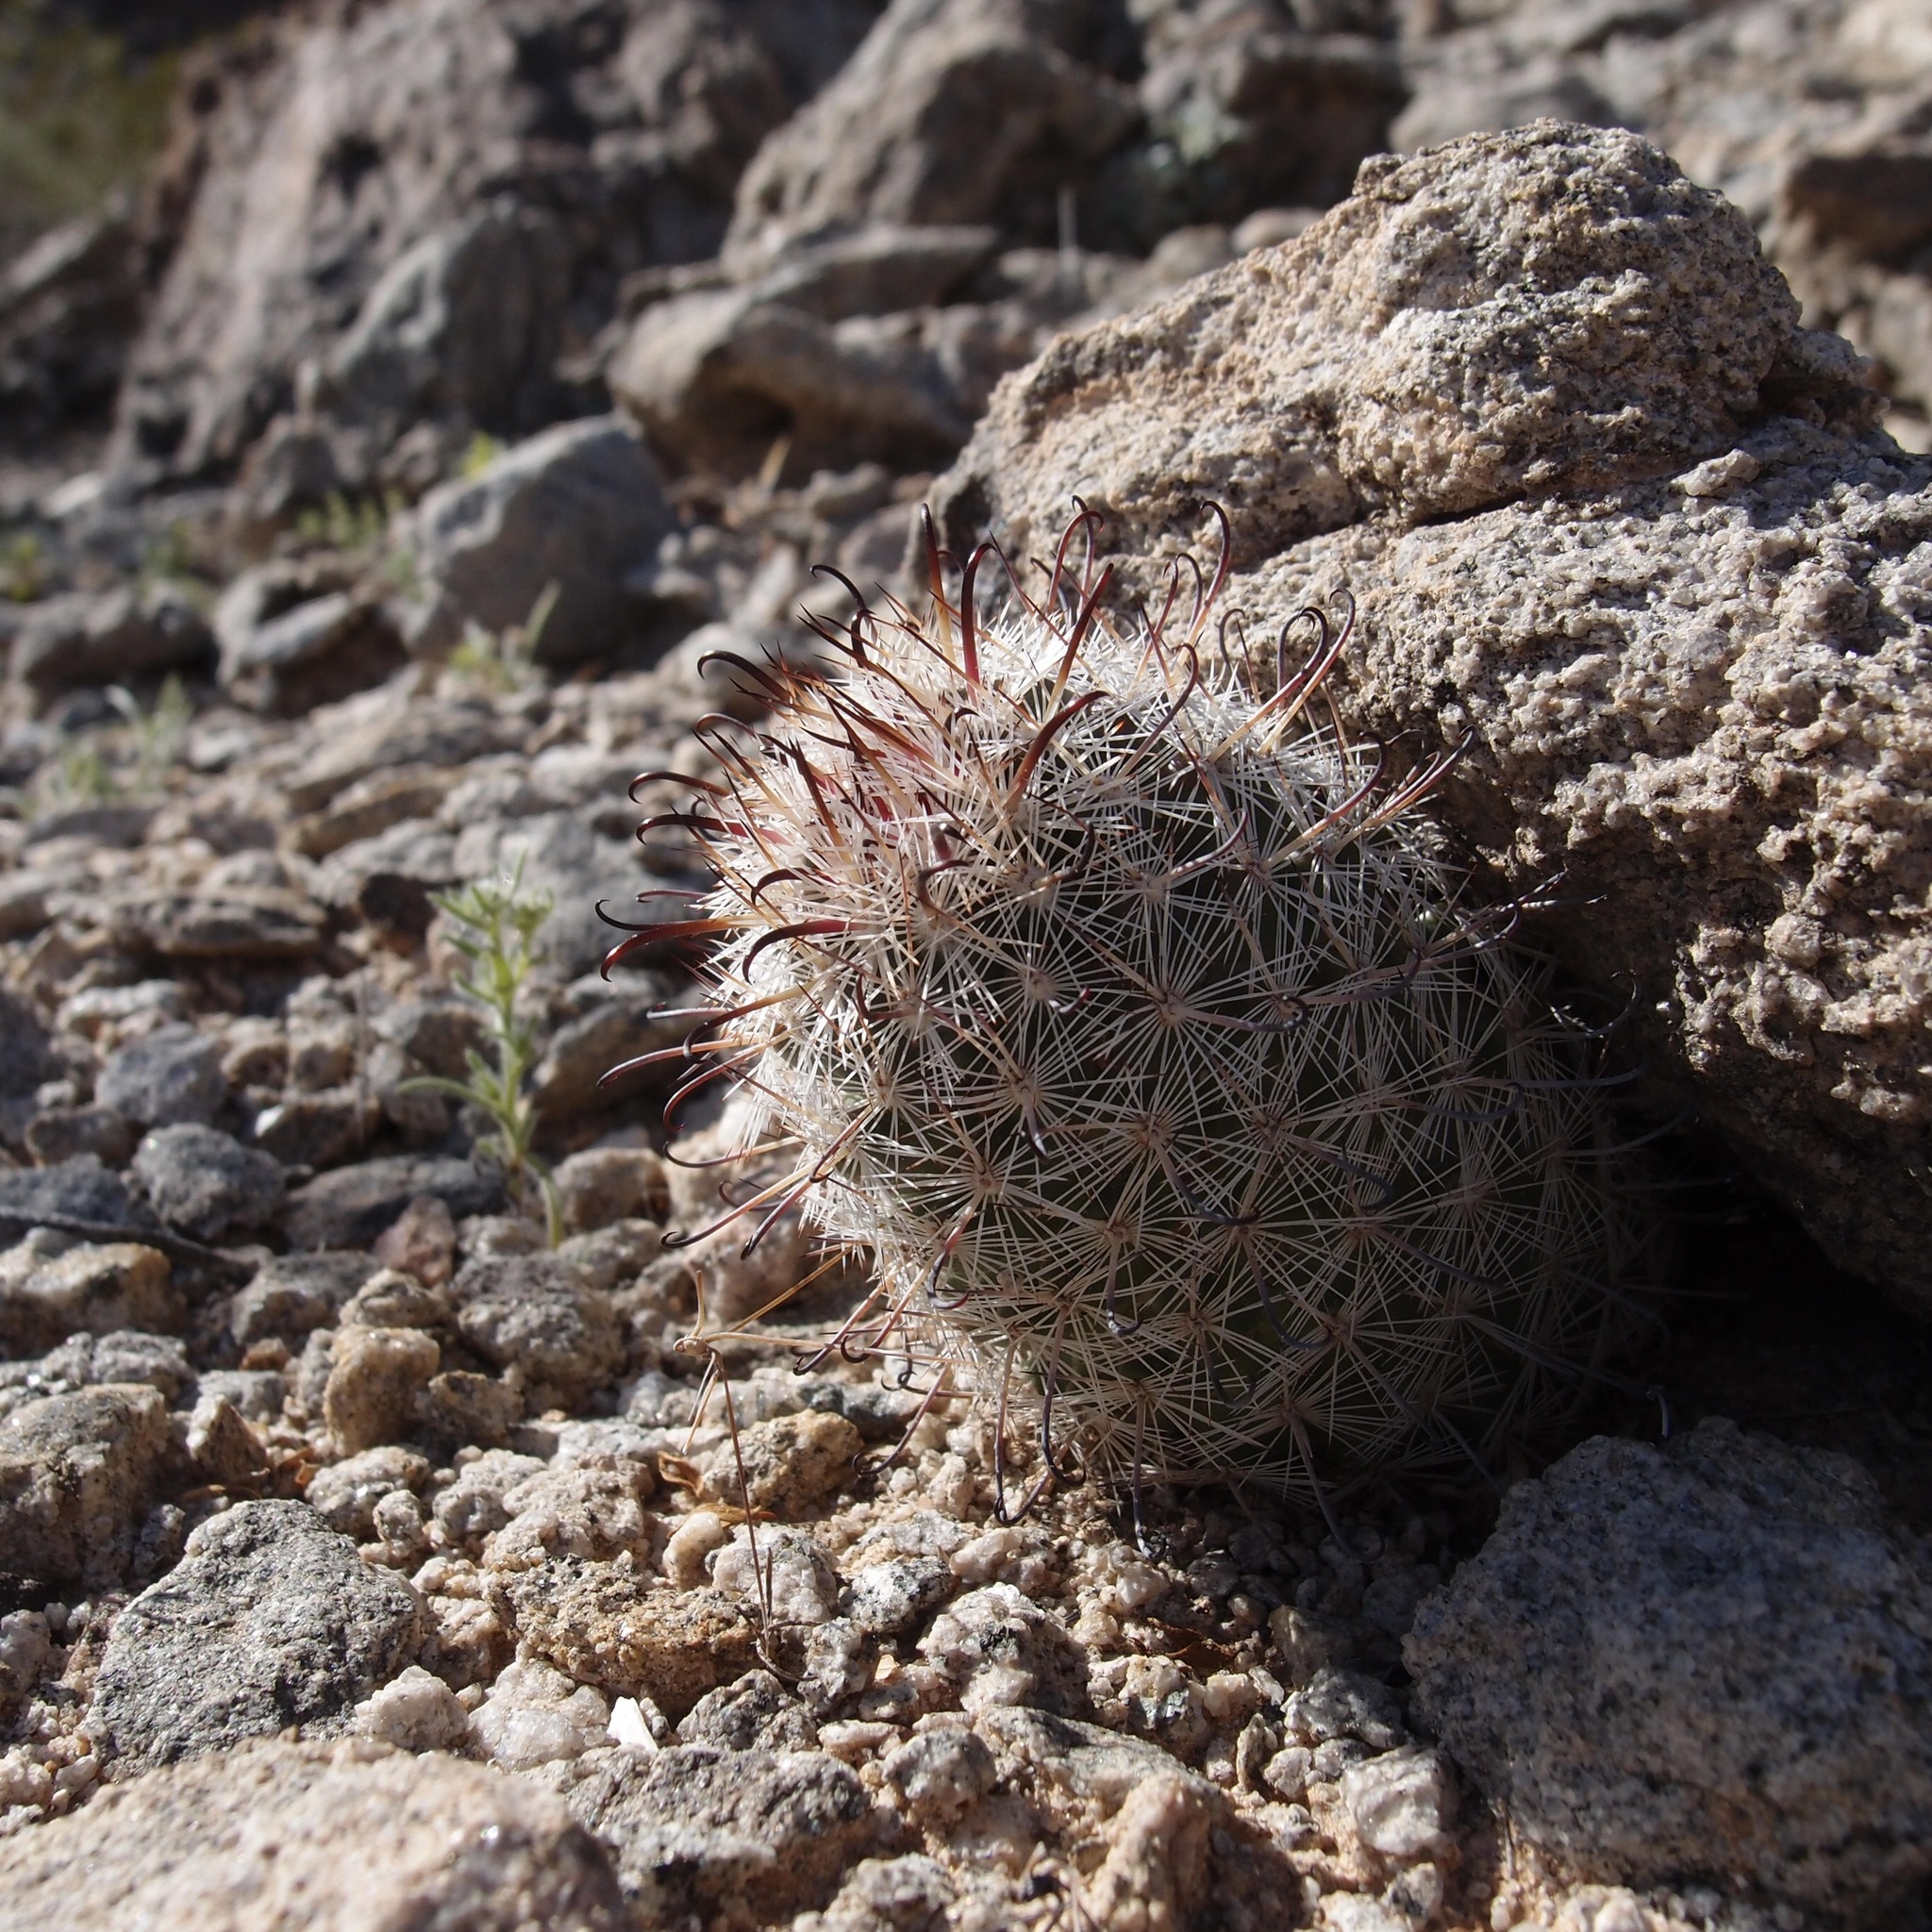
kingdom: Plantae
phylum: Tracheophyta
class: Magnoliopsida
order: Caryophyllales
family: Cactaceae
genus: Cochemiea
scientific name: Cochemiea grahamii
